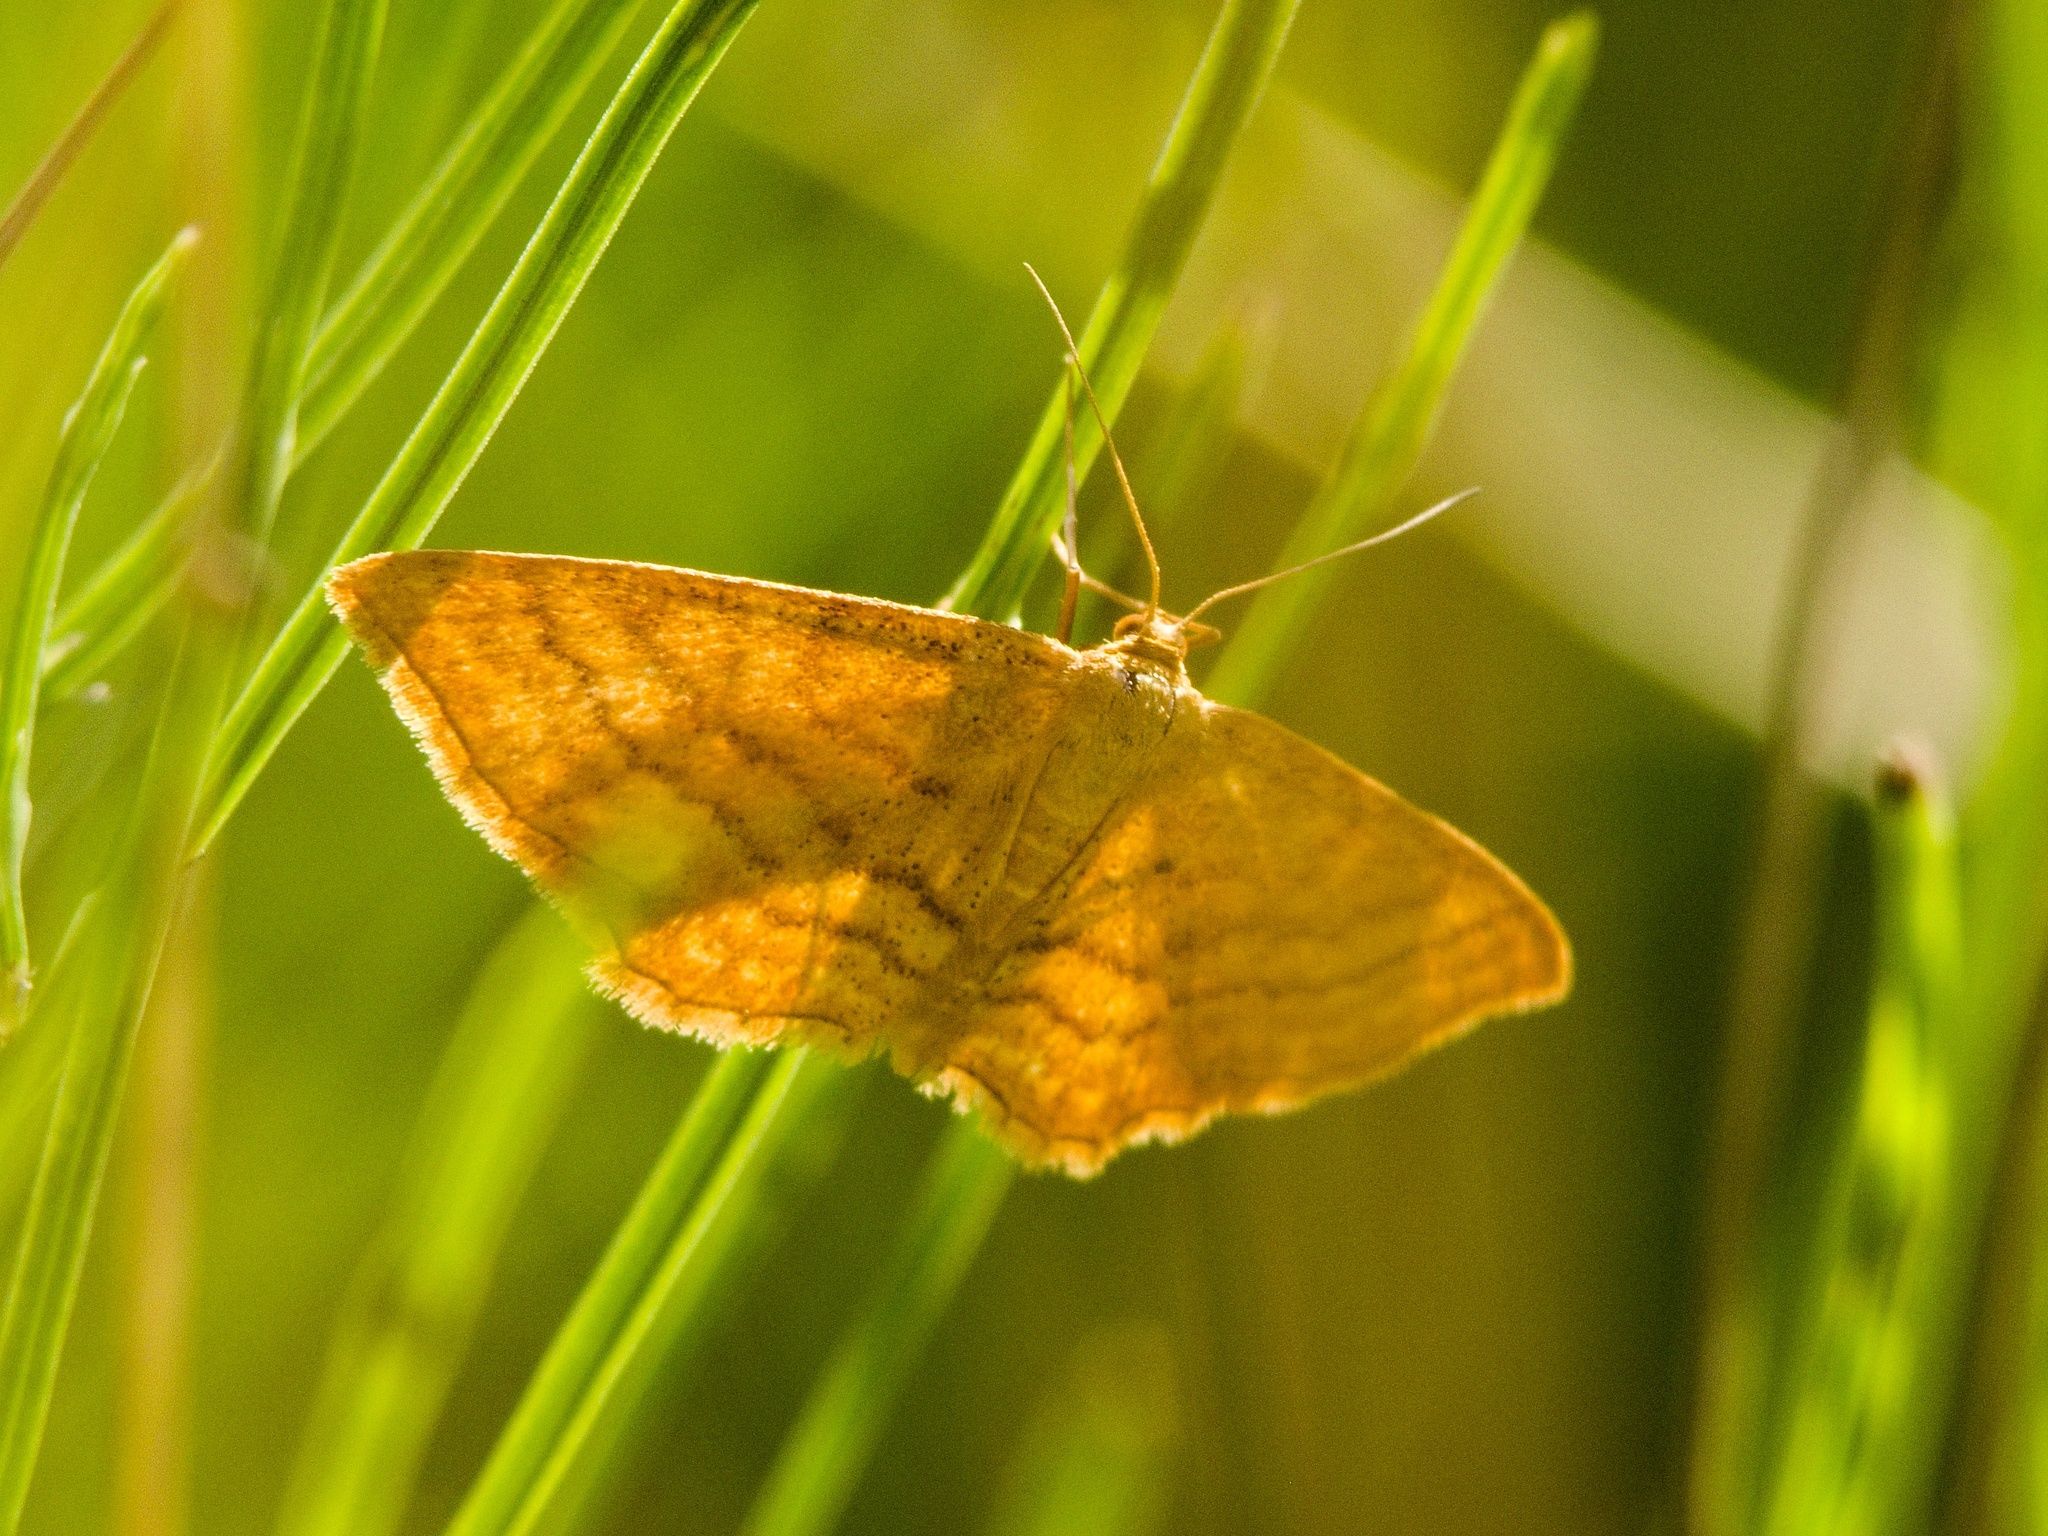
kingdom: Animalia
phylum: Arthropoda
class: Insecta
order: Lepidoptera
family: Geometridae
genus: Idaea
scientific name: Idaea ochrata
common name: Bright wave
